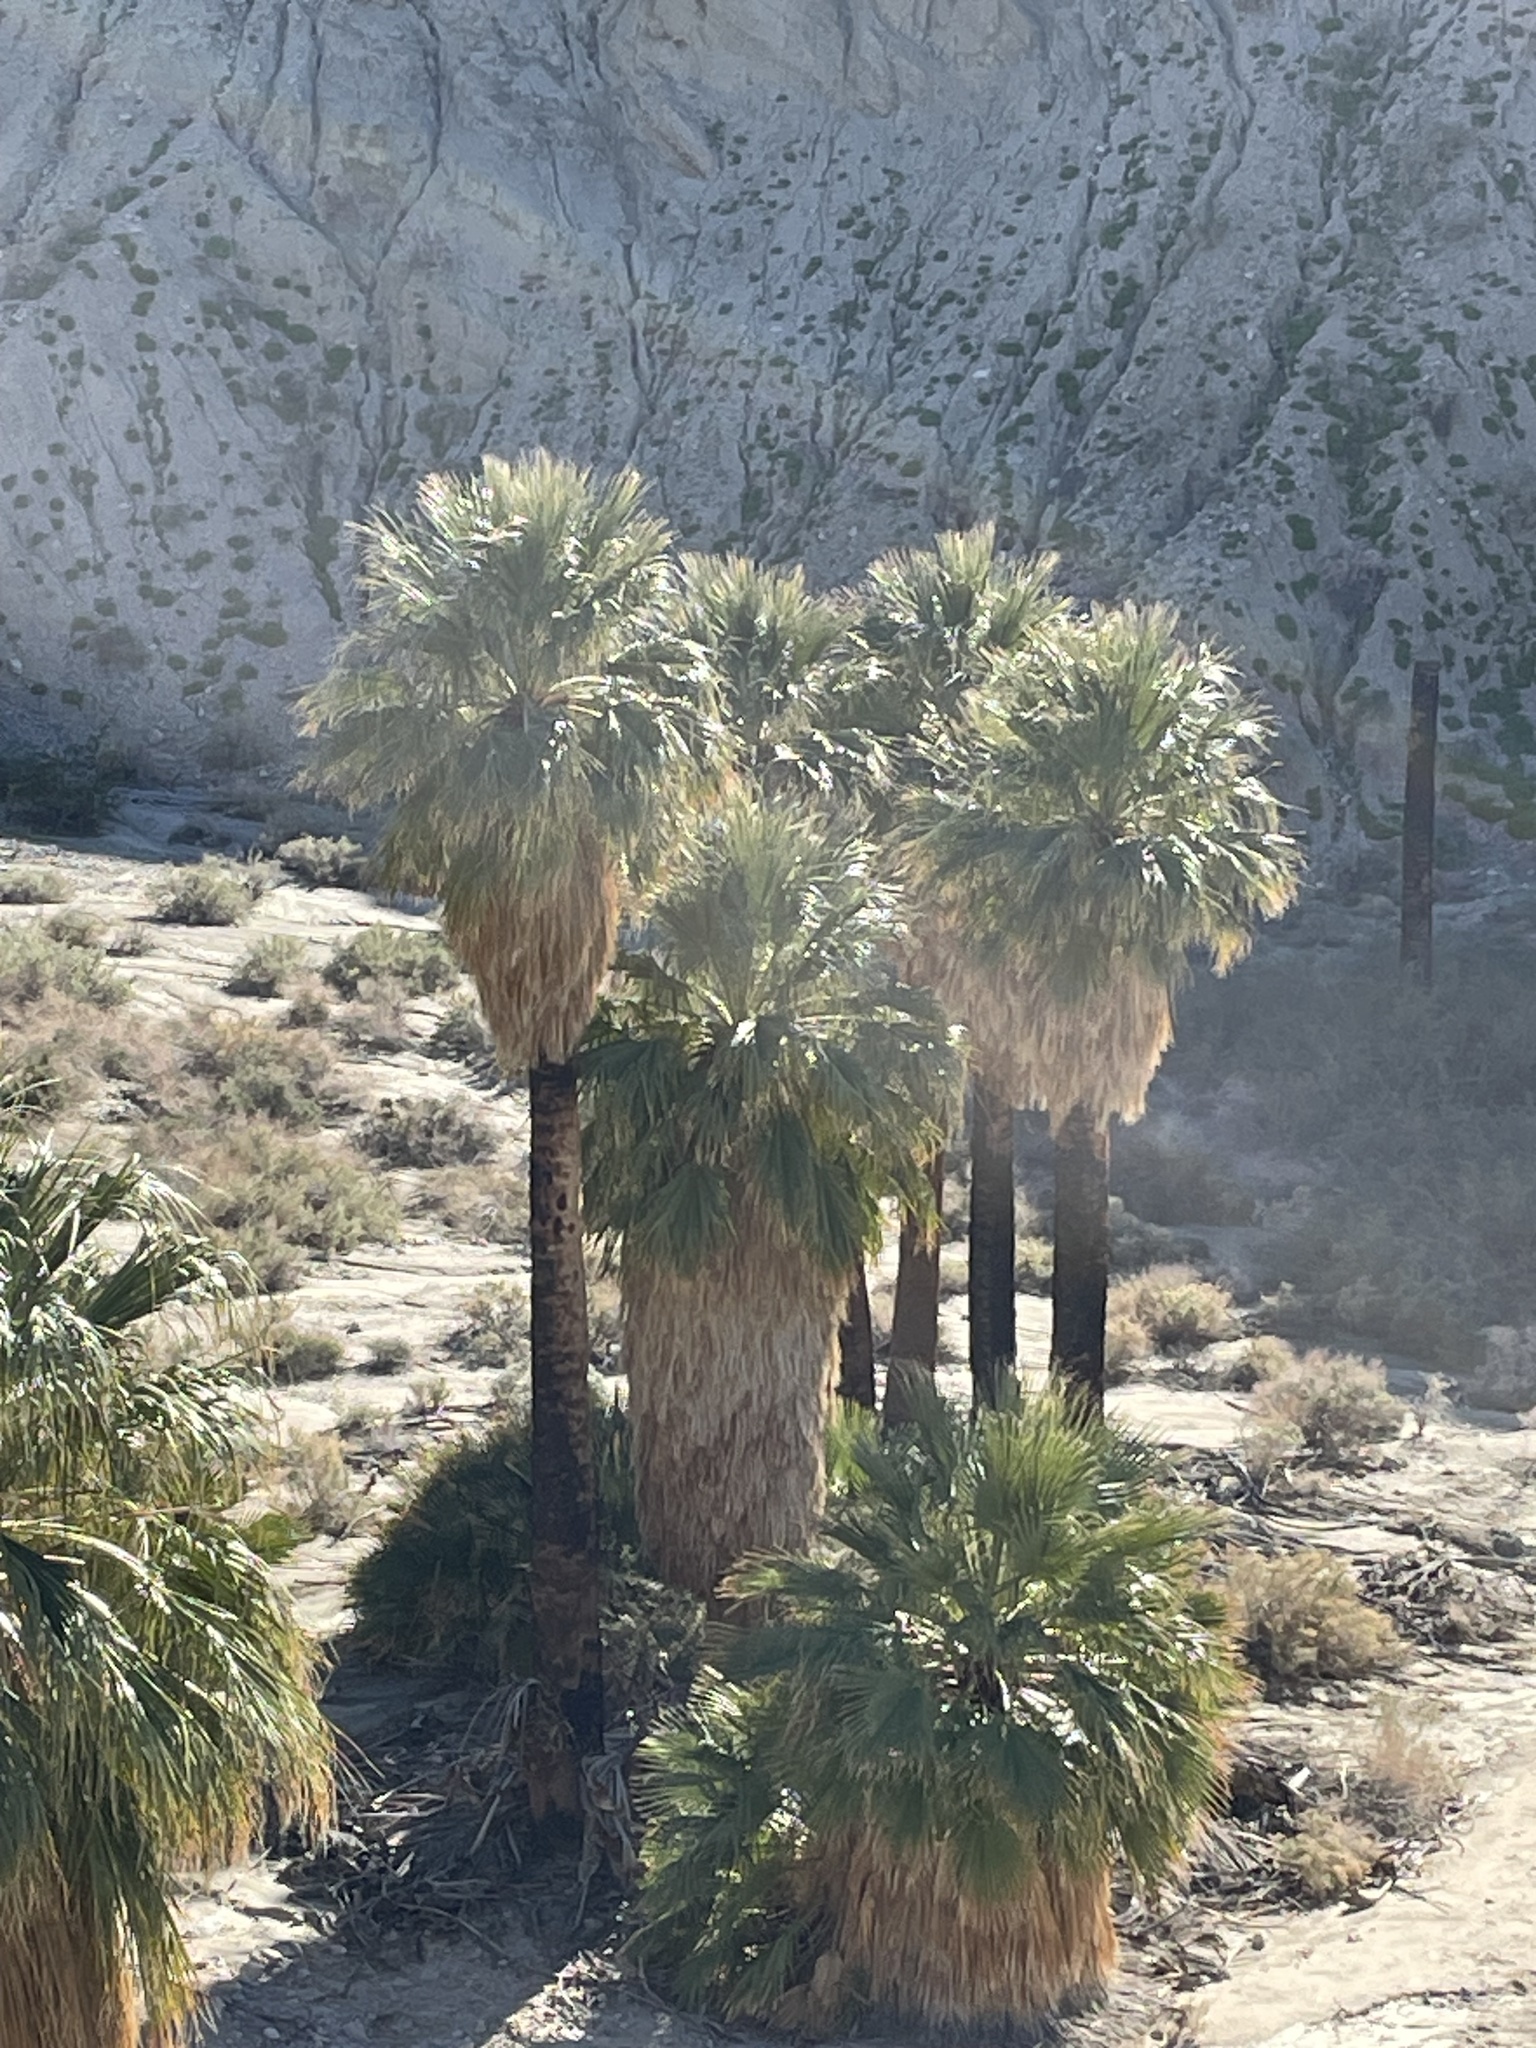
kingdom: Plantae
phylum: Tracheophyta
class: Liliopsida
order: Arecales
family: Arecaceae
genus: Washingtonia
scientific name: Washingtonia filifera
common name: California fan palm
